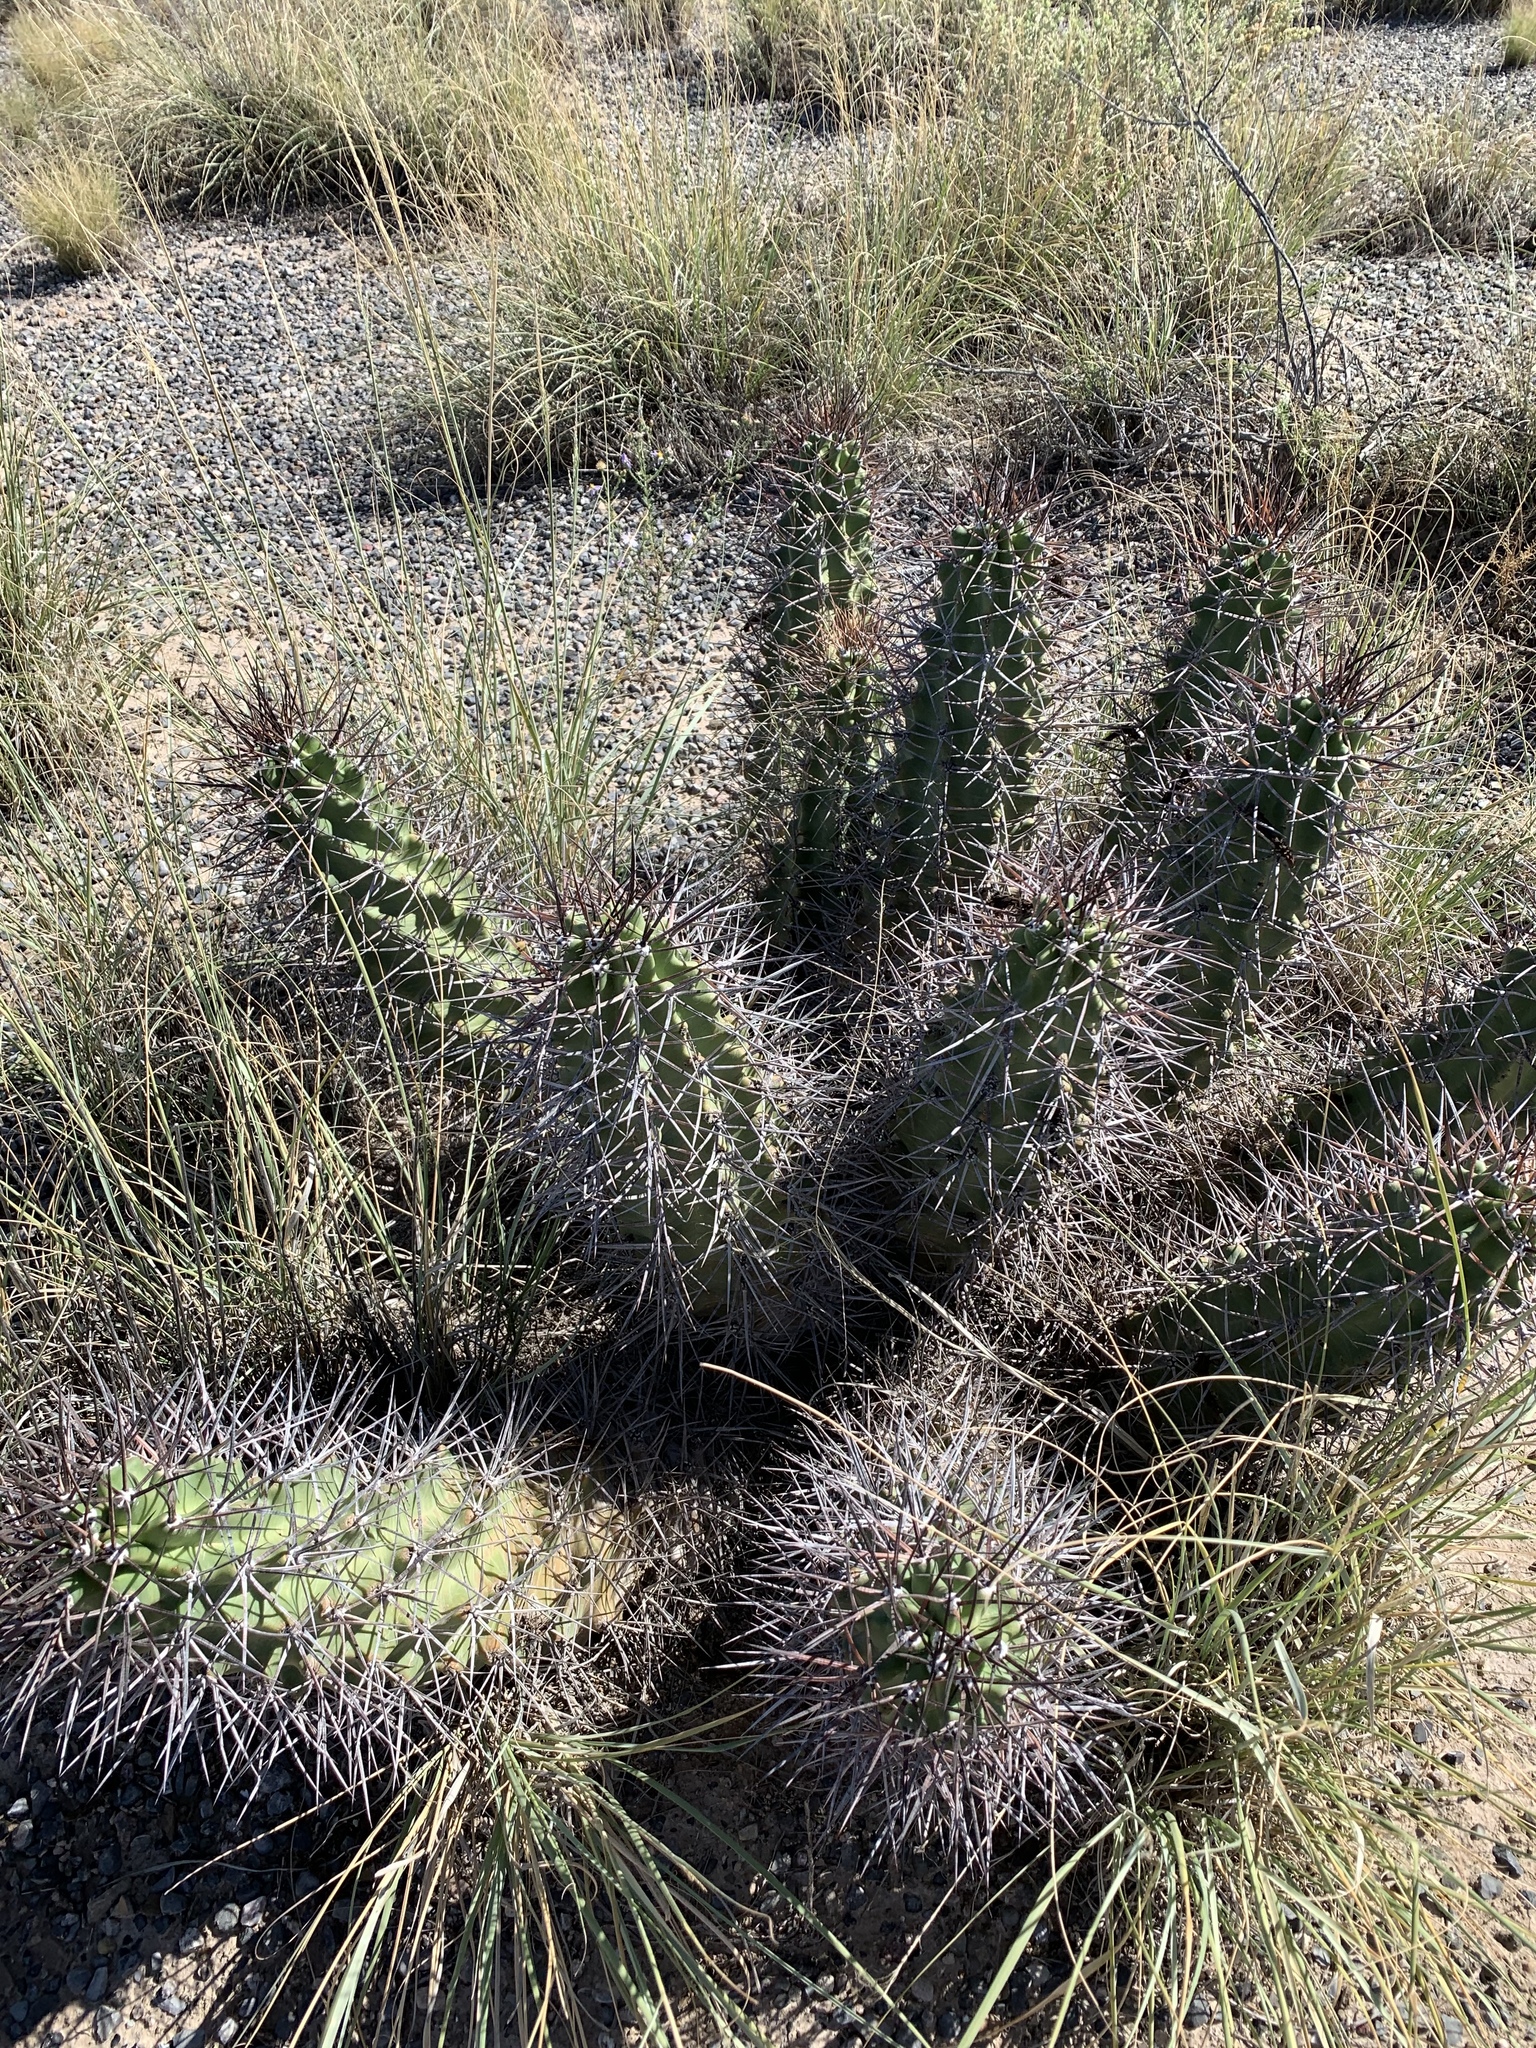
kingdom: Plantae
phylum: Tracheophyta
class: Magnoliopsida
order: Caryophyllales
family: Cactaceae
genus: Echinocereus
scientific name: Echinocereus triglochidiatus
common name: Claretcup hedgehog
